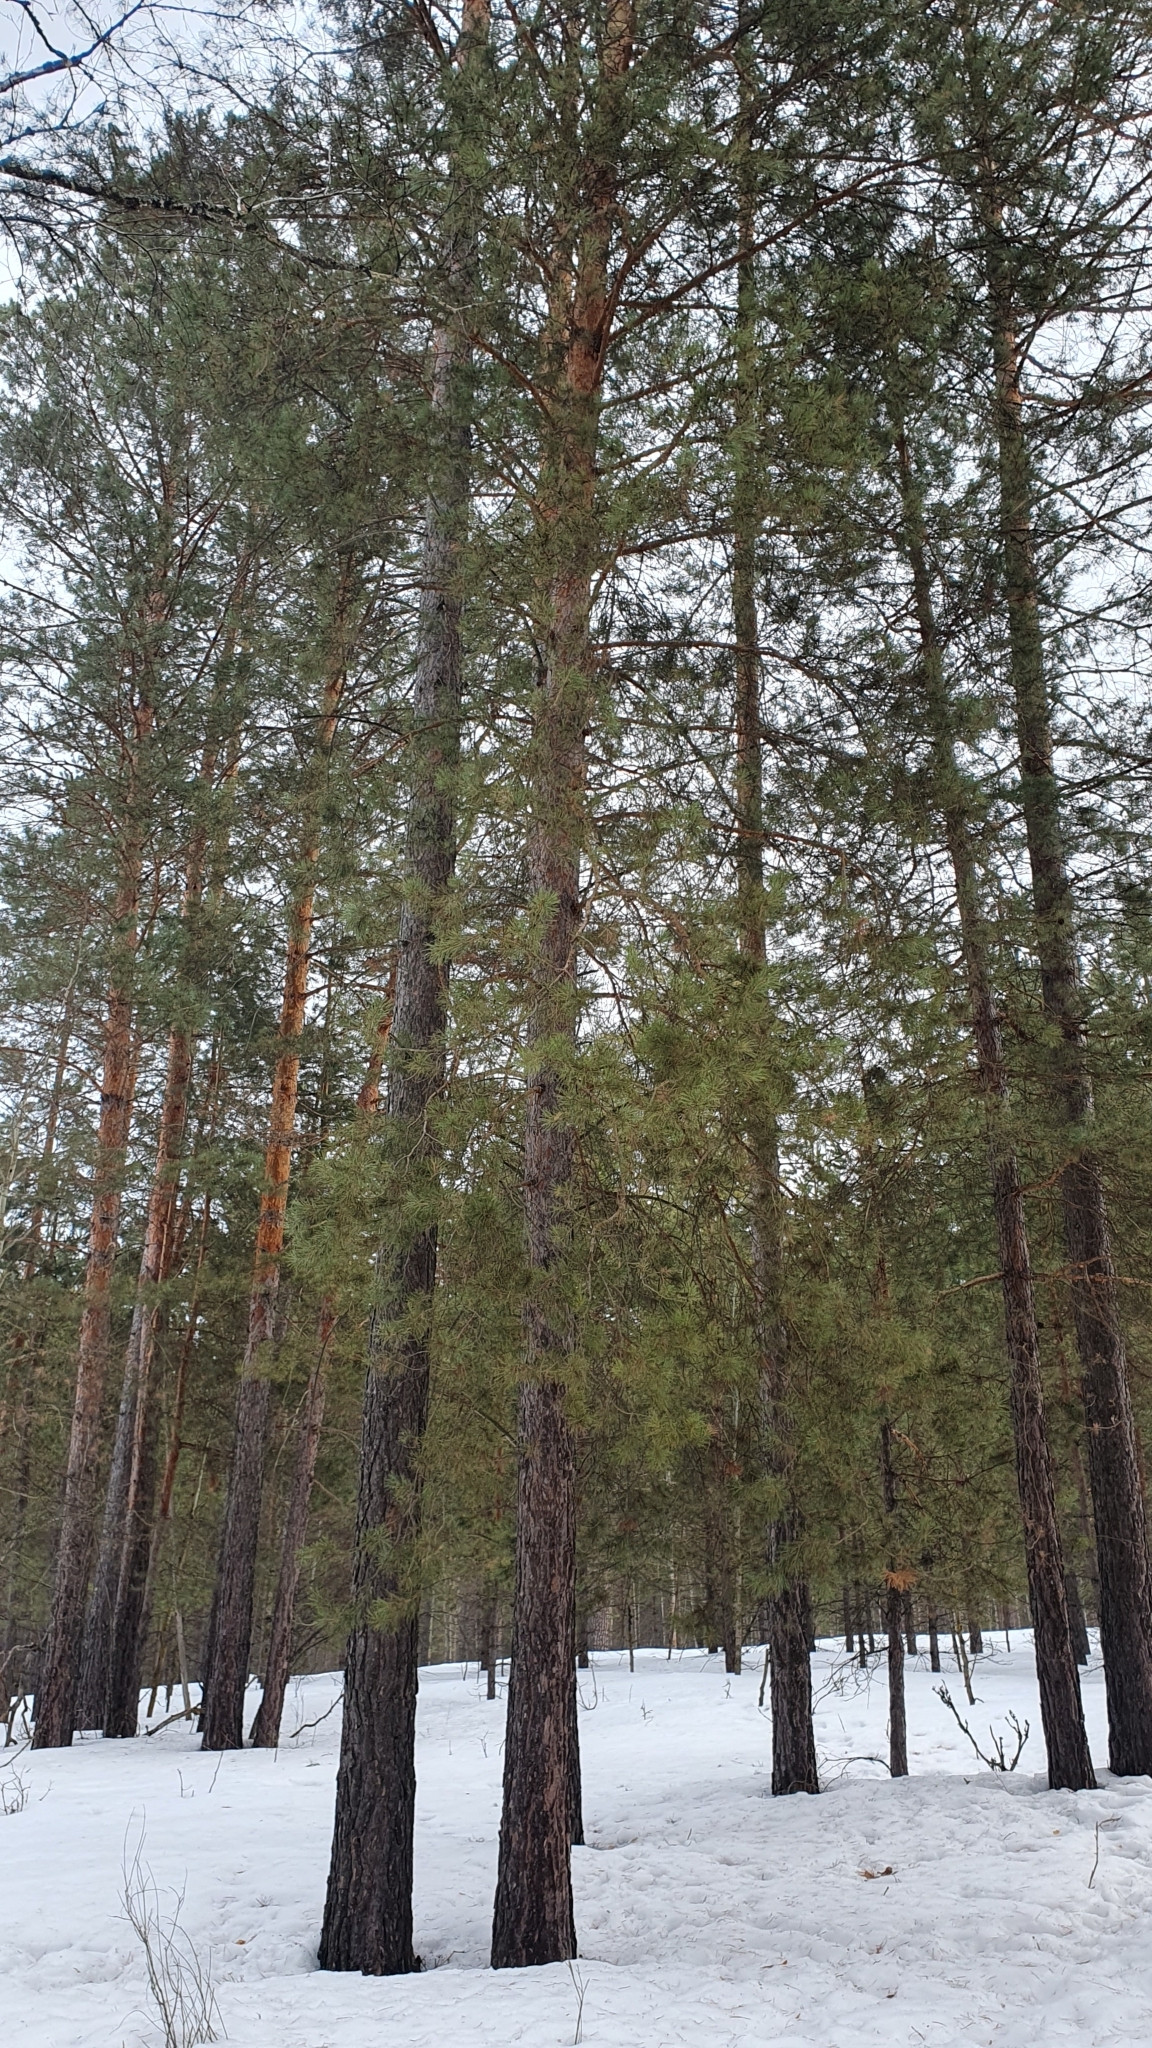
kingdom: Plantae
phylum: Tracheophyta
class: Pinopsida
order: Pinales
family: Pinaceae
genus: Pinus
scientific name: Pinus sylvestris
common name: Scots pine
